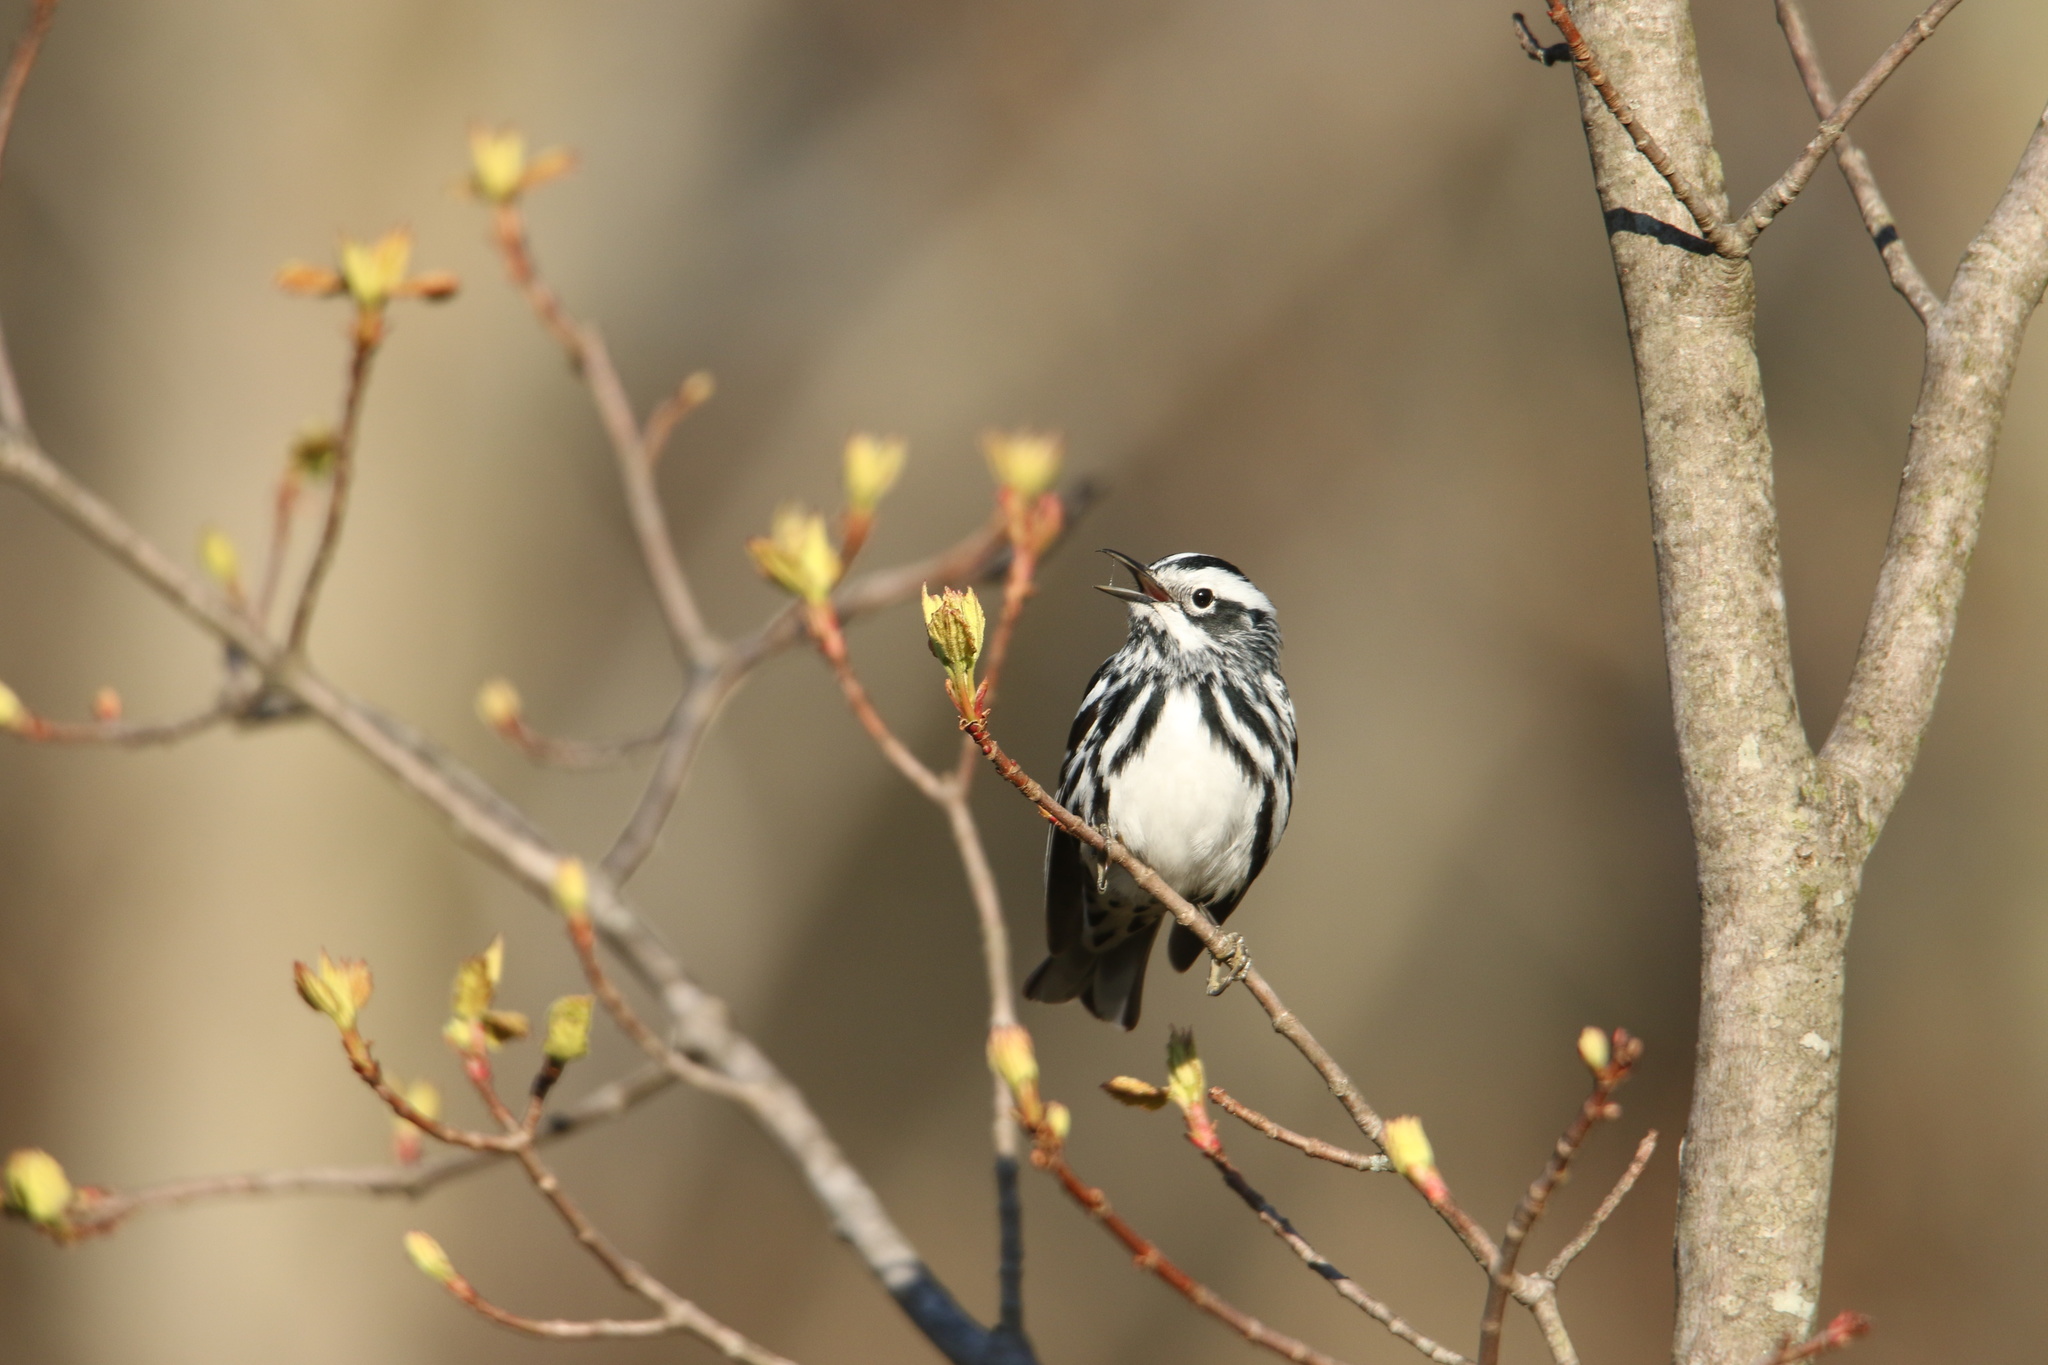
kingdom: Animalia
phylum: Chordata
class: Aves
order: Passeriformes
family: Parulidae
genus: Mniotilta
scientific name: Mniotilta varia
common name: Black-and-white warbler
